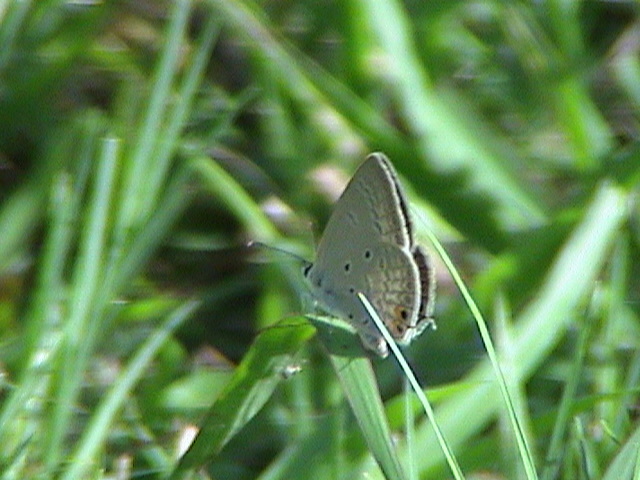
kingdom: Animalia
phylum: Arthropoda
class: Insecta
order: Lepidoptera
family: Lycaenidae
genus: Euchrysops
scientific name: Euchrysops cnejus
